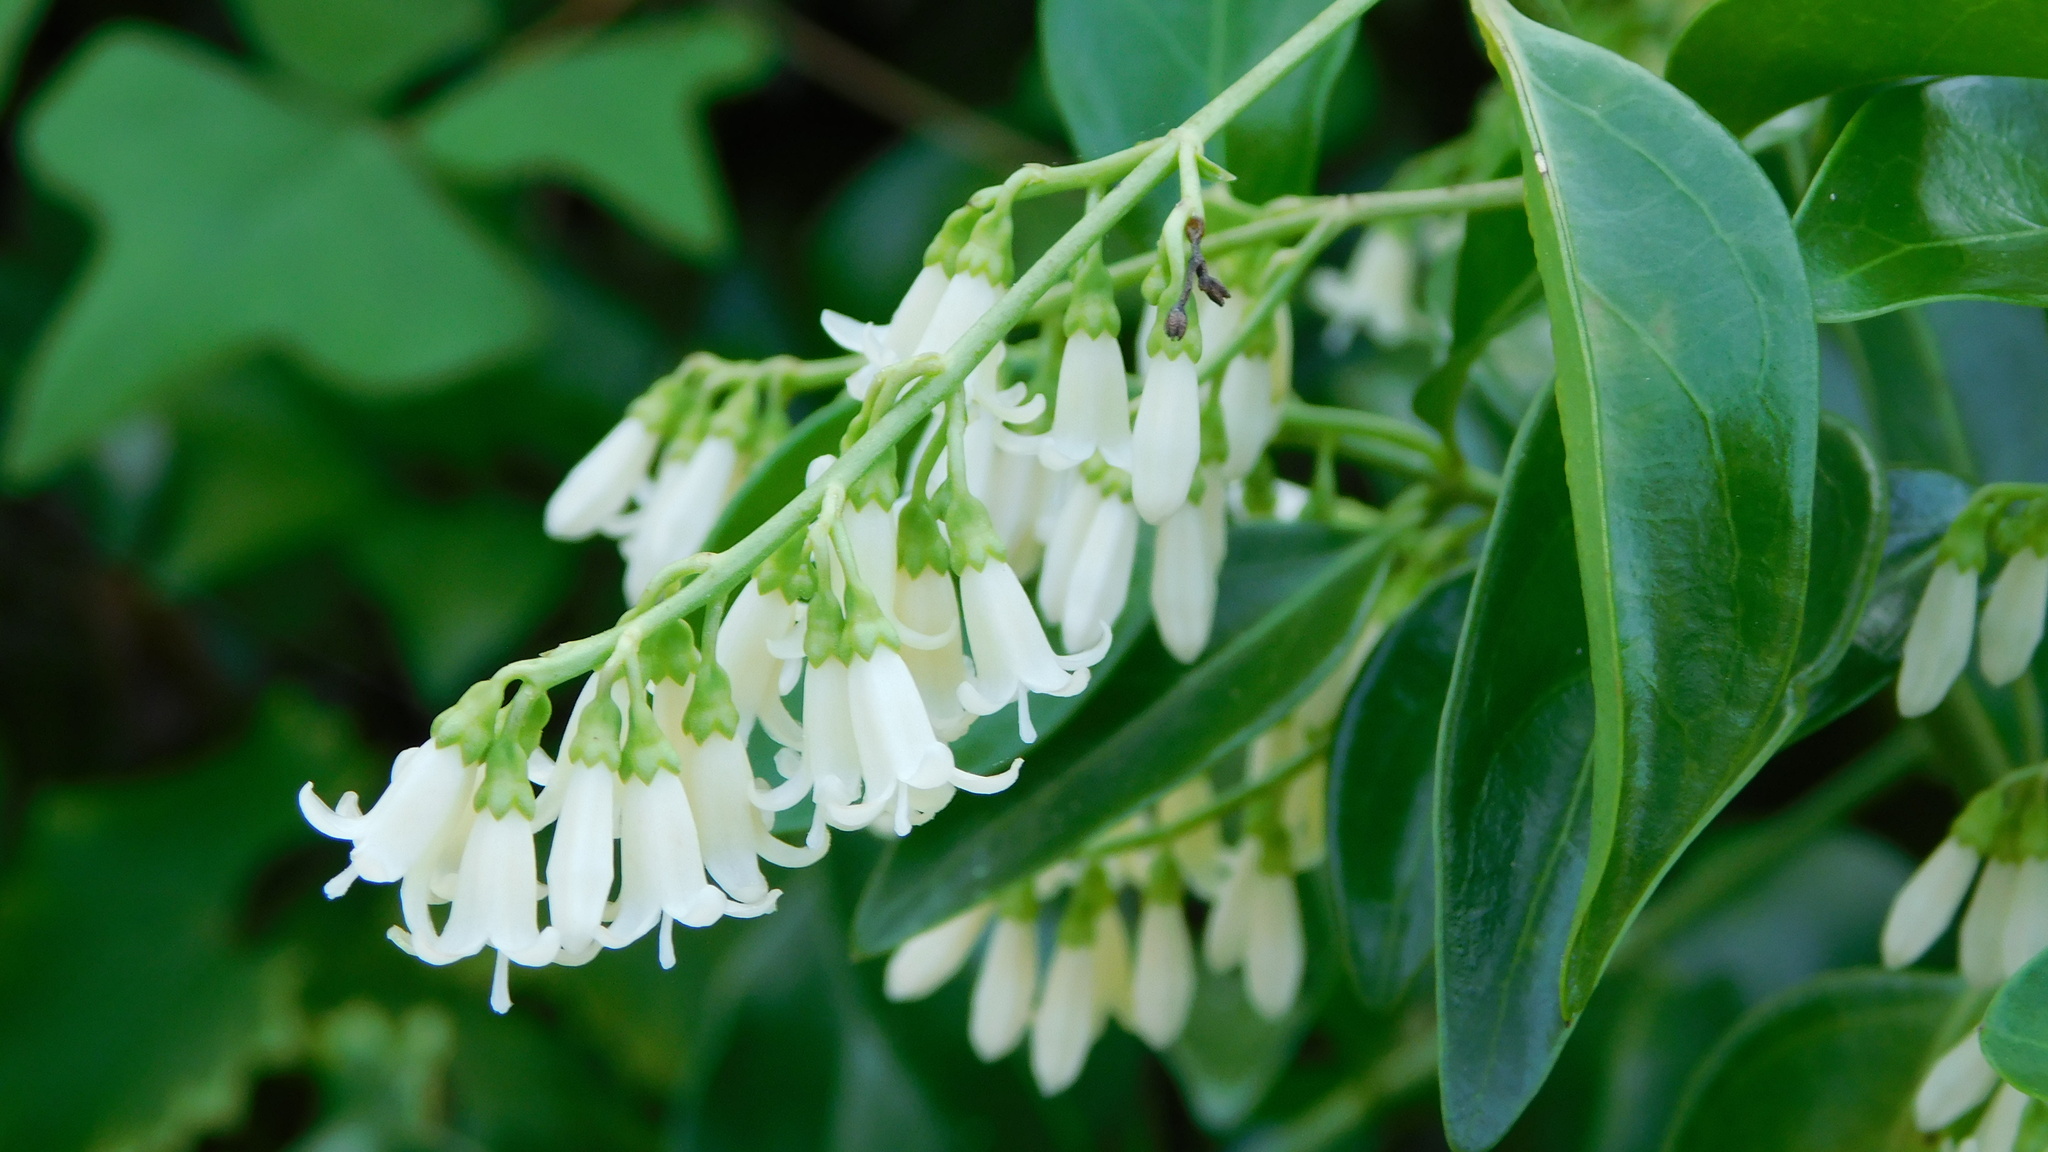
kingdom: Plantae
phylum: Tracheophyta
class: Magnoliopsida
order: Gentianales
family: Rubiaceae
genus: Chiococca
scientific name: Chiococca alba
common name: Snowberry
